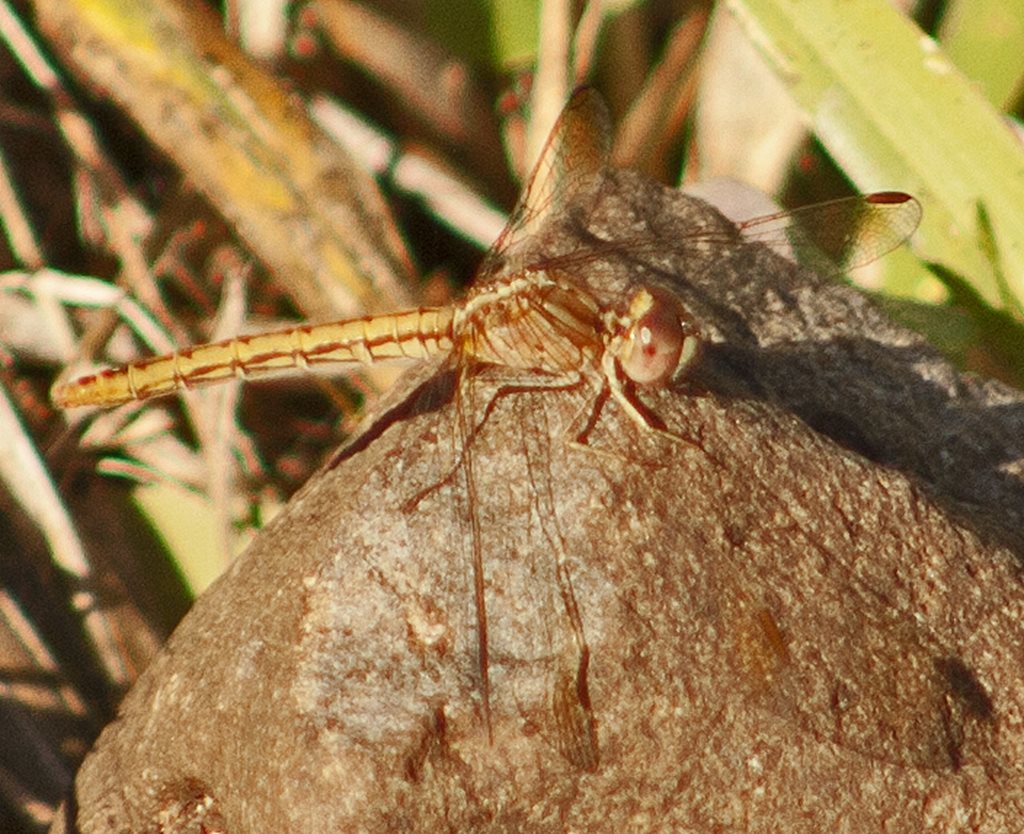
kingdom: Animalia
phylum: Arthropoda
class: Insecta
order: Odonata
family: Libellulidae
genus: Diplacodes
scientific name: Diplacodes haematodes
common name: Scarlet percher
